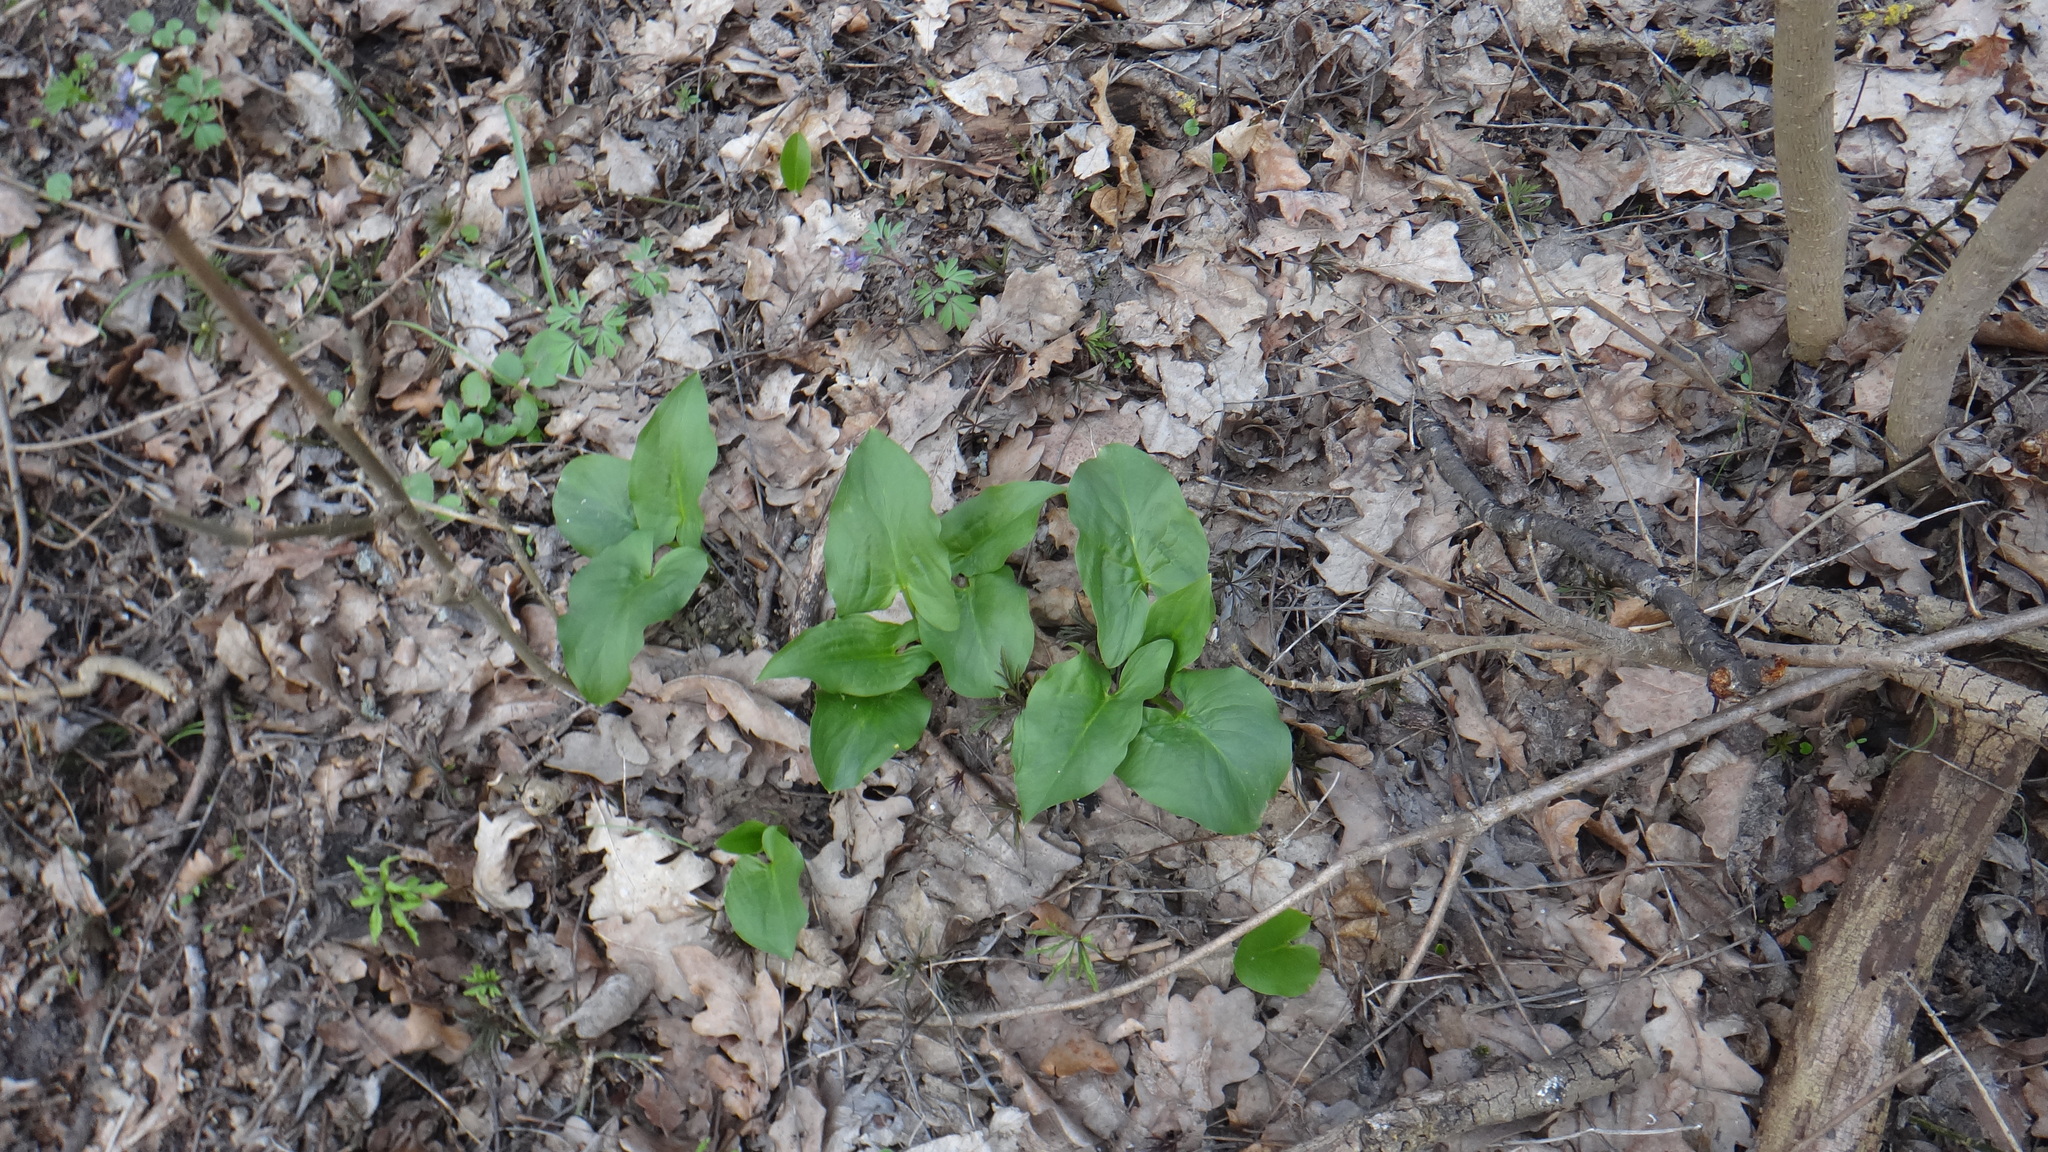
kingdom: Plantae
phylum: Tracheophyta
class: Liliopsida
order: Alismatales
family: Araceae
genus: Arum
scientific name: Arum besserianum
